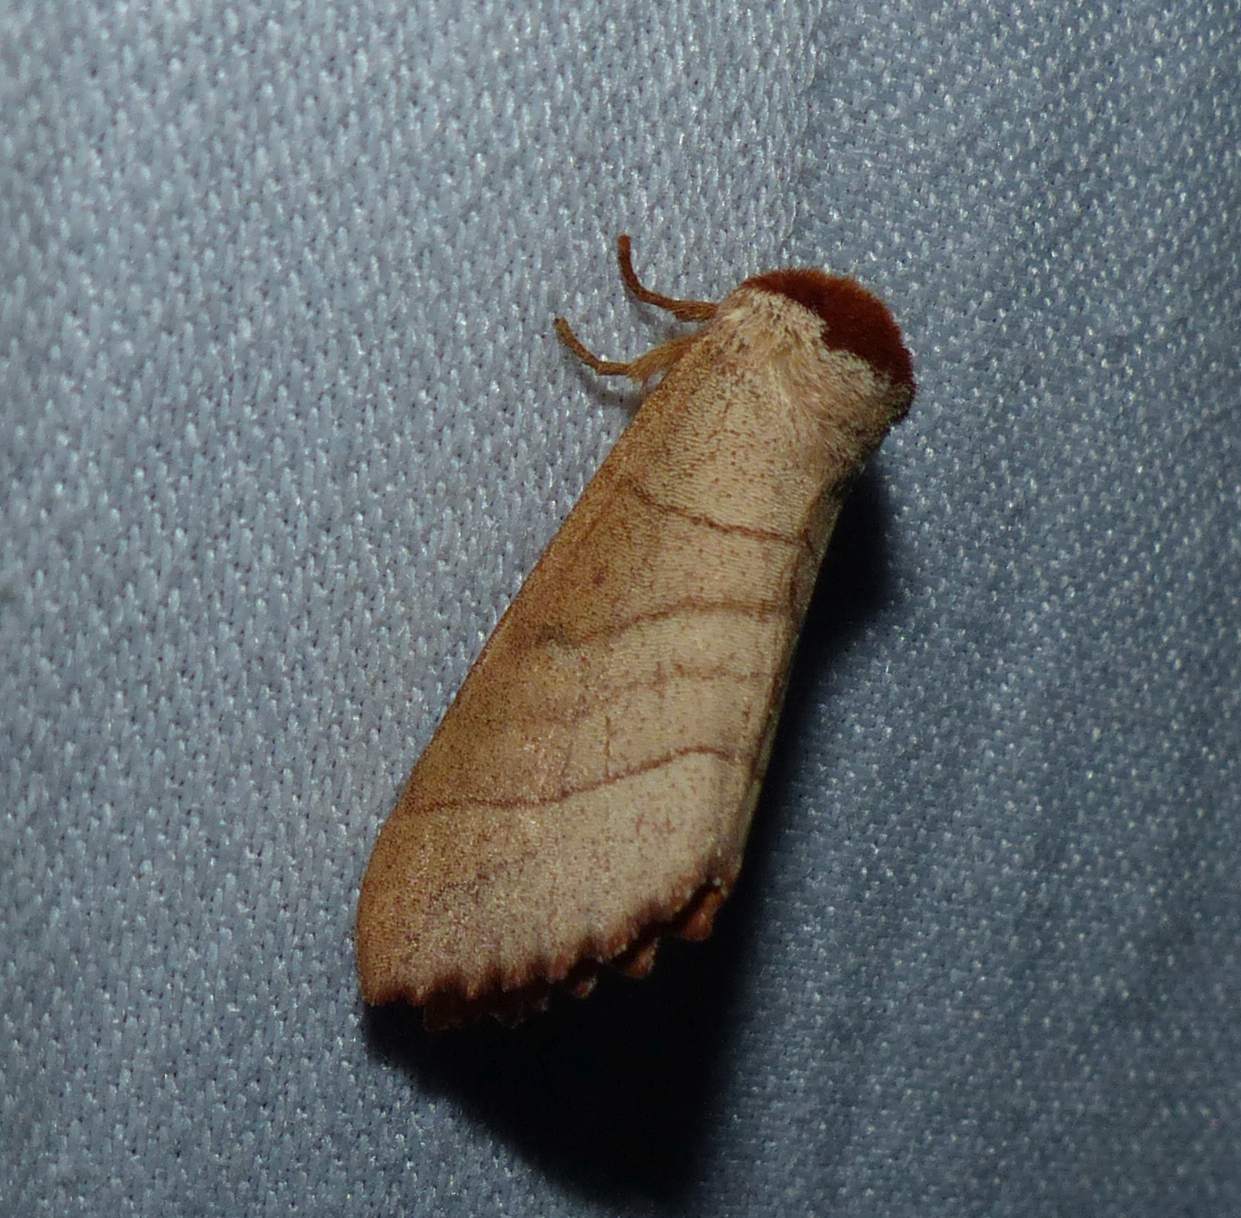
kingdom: Animalia
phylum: Arthropoda
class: Insecta
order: Lepidoptera
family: Notodontidae
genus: Datana
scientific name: Datana ministra
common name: Yellow-necked caterpillar moth
